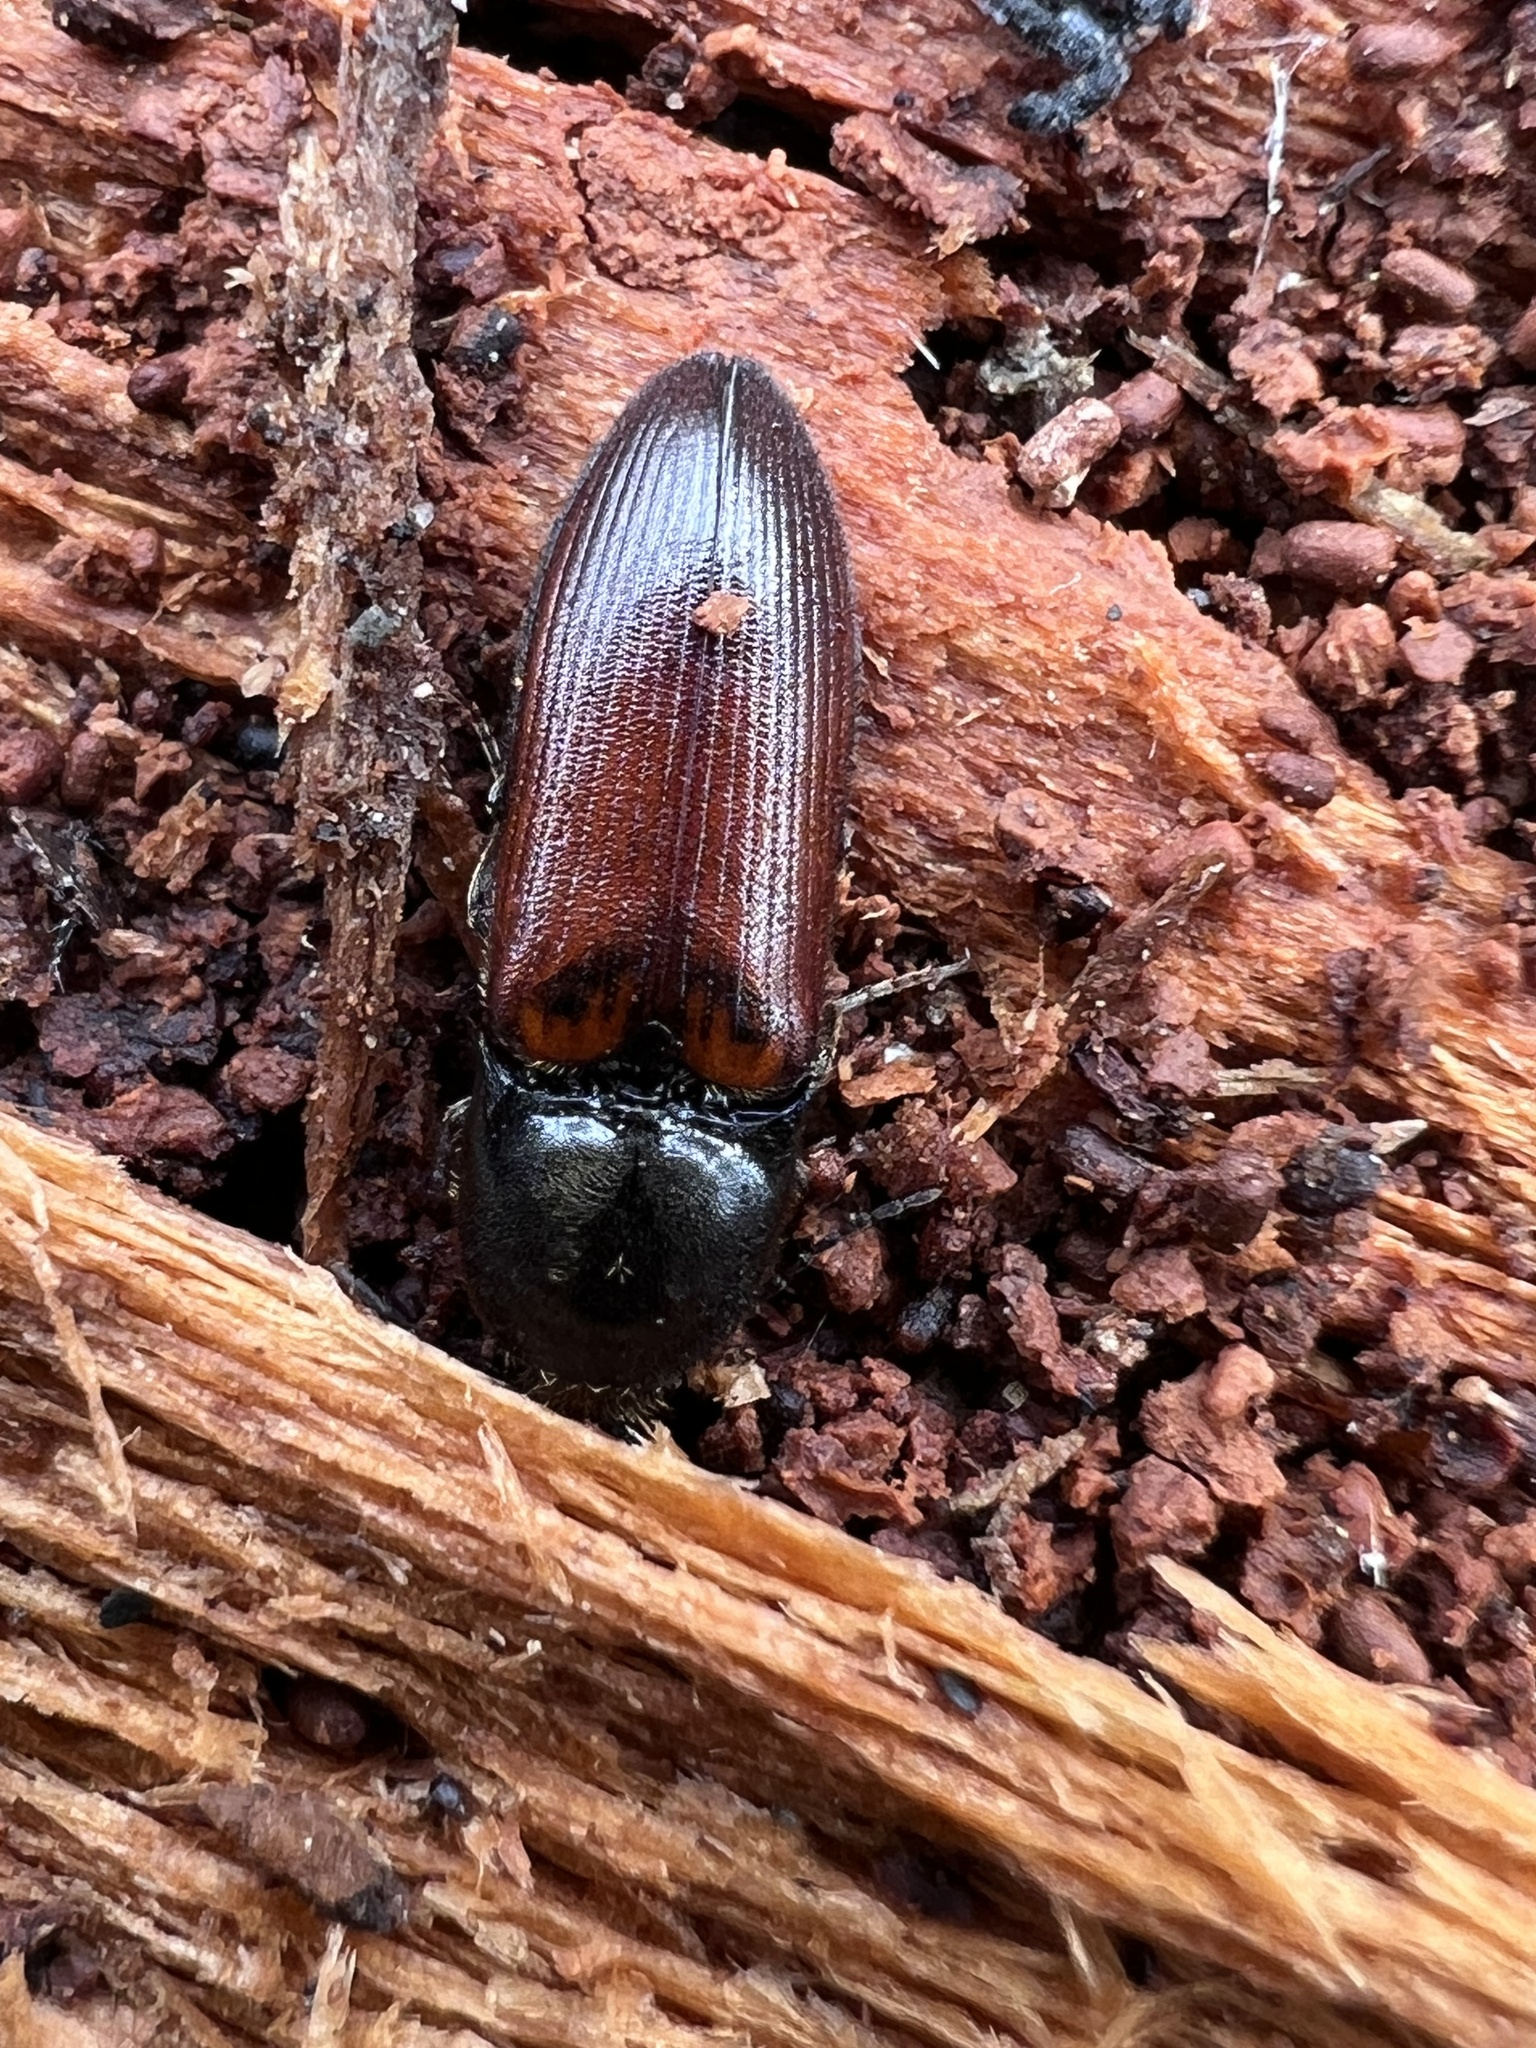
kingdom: Animalia
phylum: Arthropoda
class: Insecta
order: Coleoptera
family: Elateridae
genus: Ampedus
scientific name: Ampedus phoenicopterus
